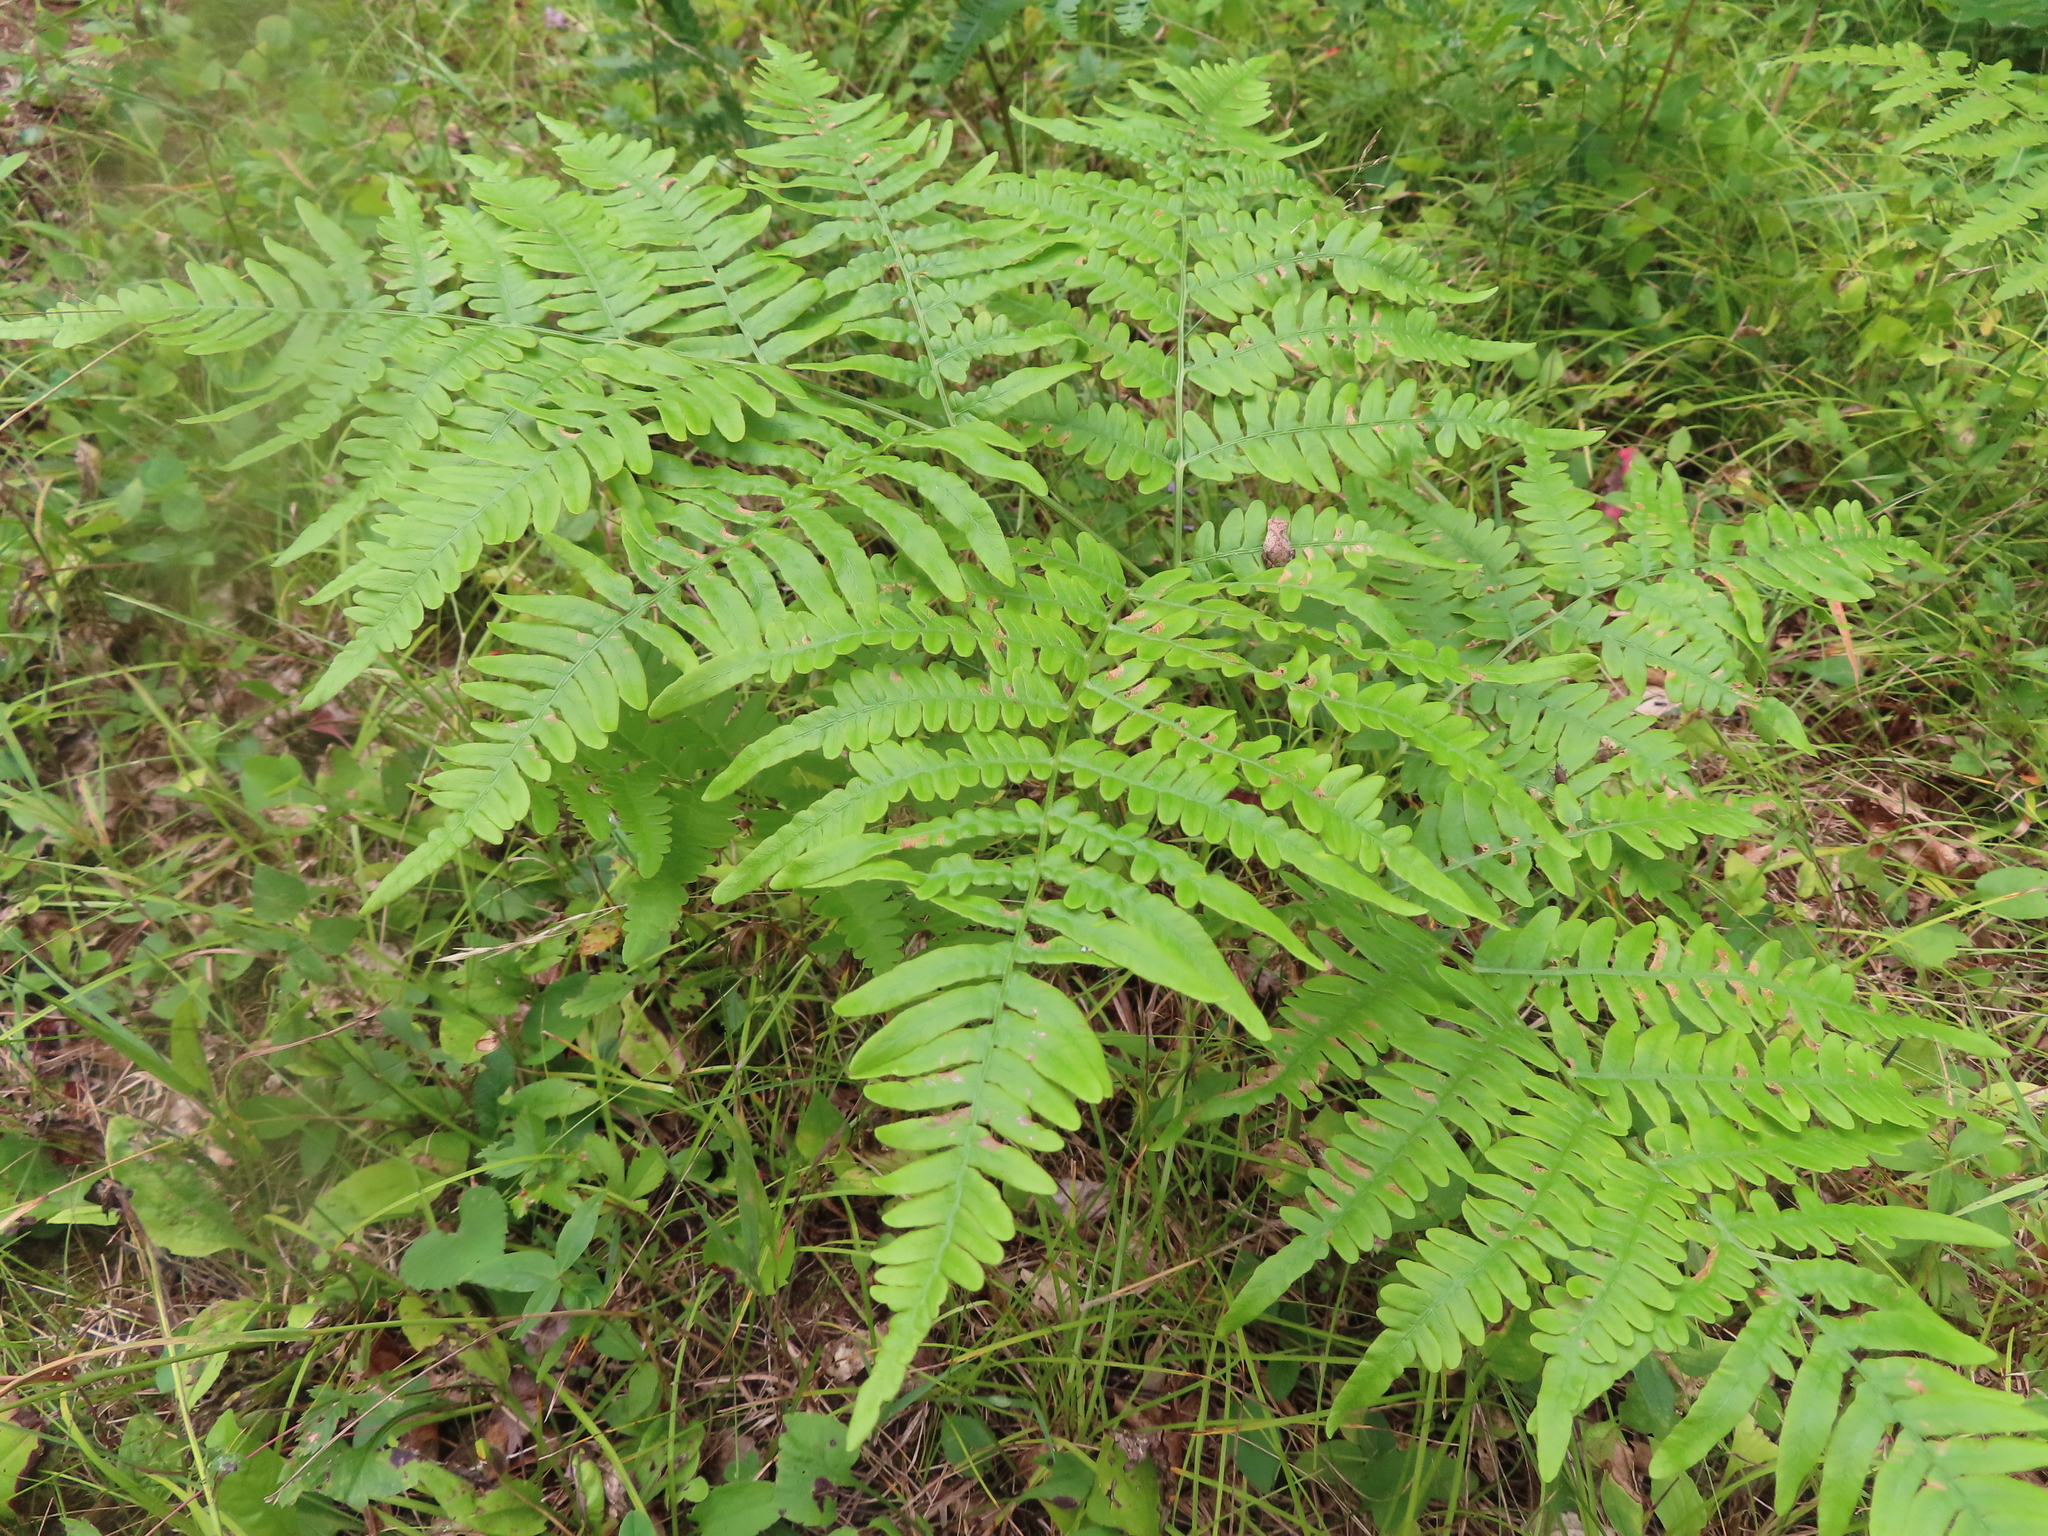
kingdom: Plantae
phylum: Tracheophyta
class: Polypodiopsida
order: Polypodiales
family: Dennstaedtiaceae
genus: Pteridium
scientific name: Pteridium aquilinum
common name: Bracken
